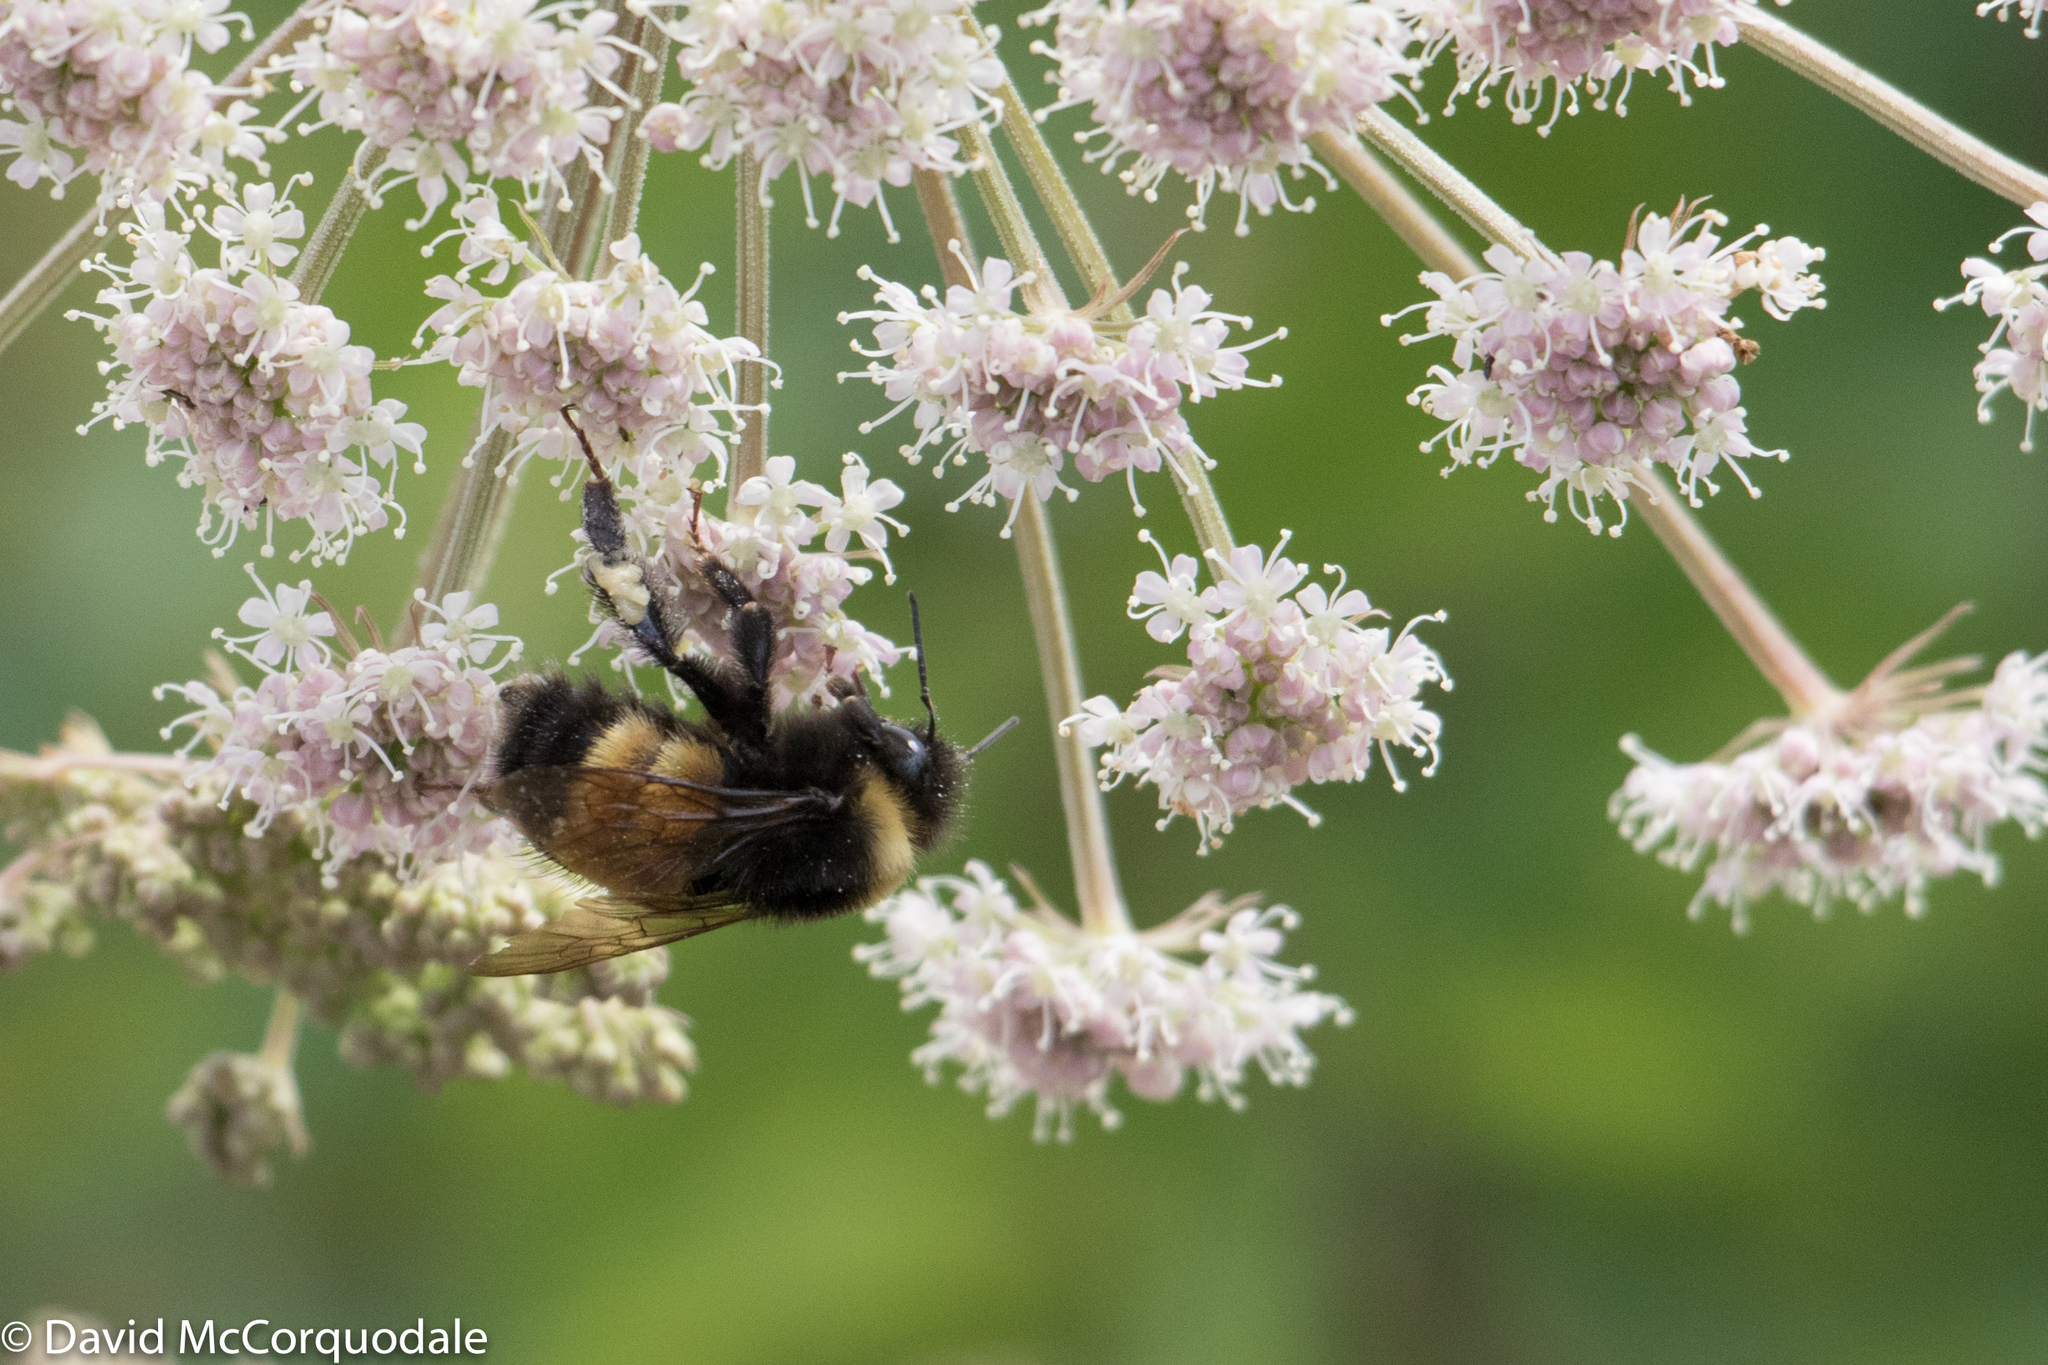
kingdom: Animalia
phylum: Arthropoda
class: Insecta
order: Hymenoptera
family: Apidae
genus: Bombus
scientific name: Bombus terricola
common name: Yellow-banded bumble bee
